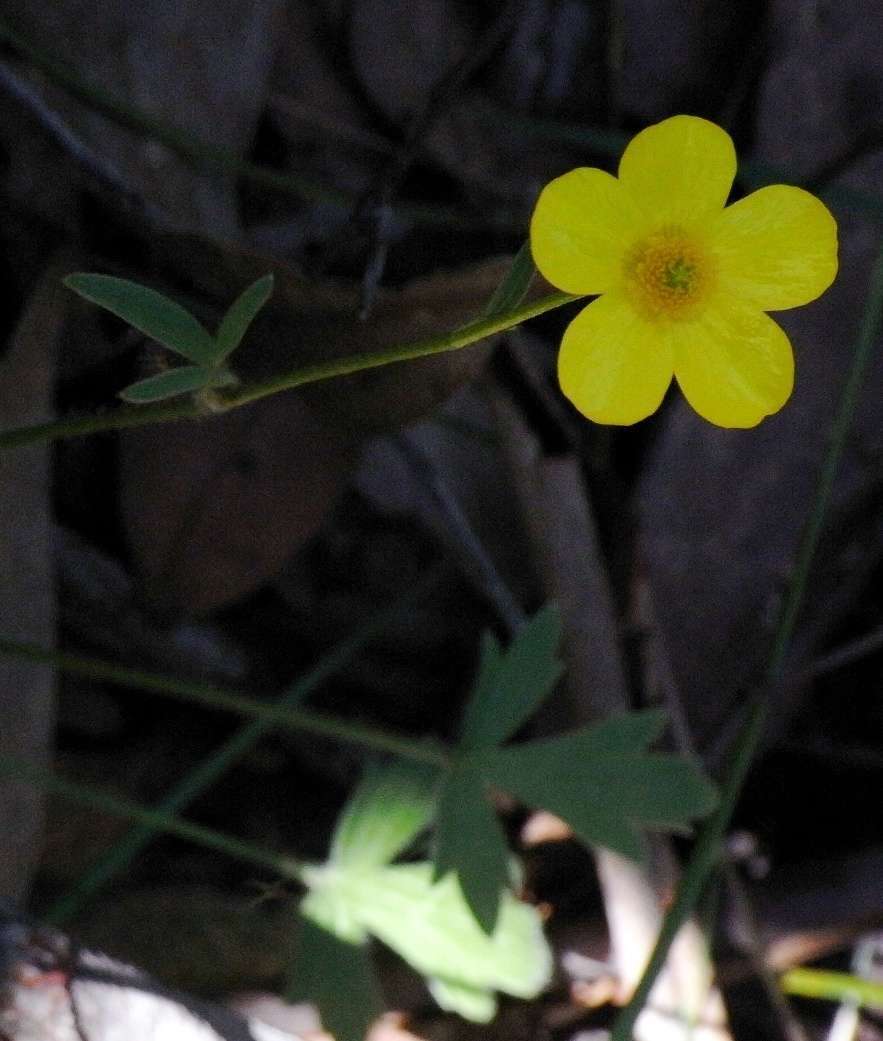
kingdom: Plantae
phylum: Tracheophyta
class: Magnoliopsida
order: Ranunculales
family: Ranunculaceae
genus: Ranunculus
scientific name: Ranunculus lappaceus
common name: Australian buttercup
